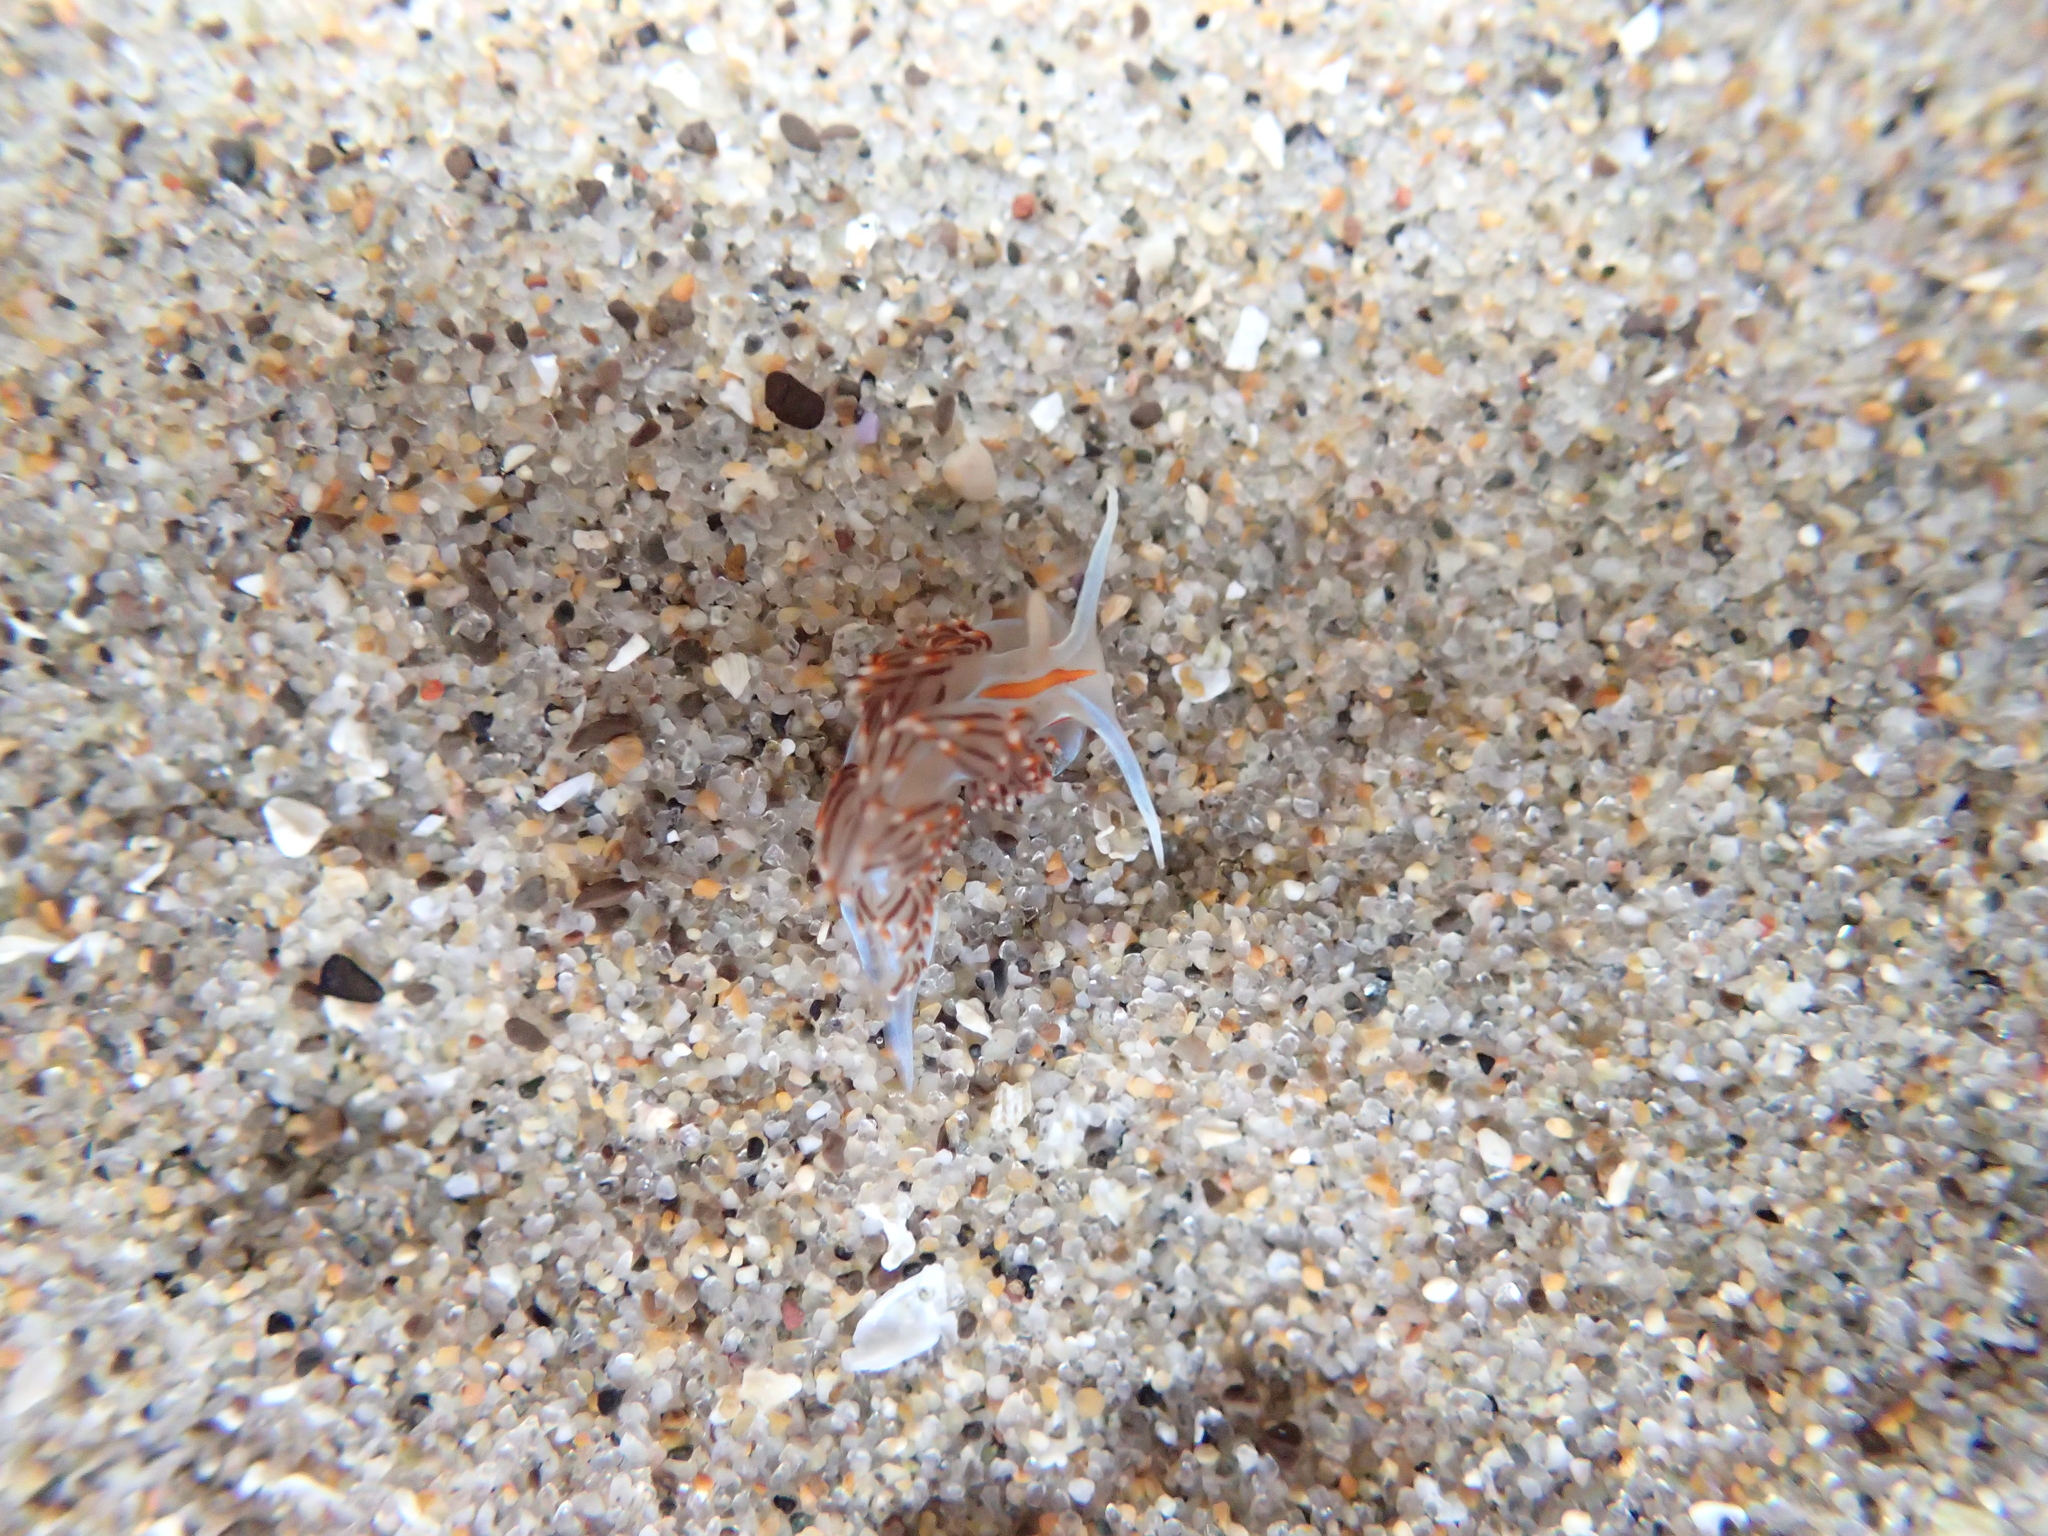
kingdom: Animalia
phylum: Mollusca
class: Gastropoda
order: Nudibranchia
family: Myrrhinidae
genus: Hermissenda
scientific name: Hermissenda opalescens
